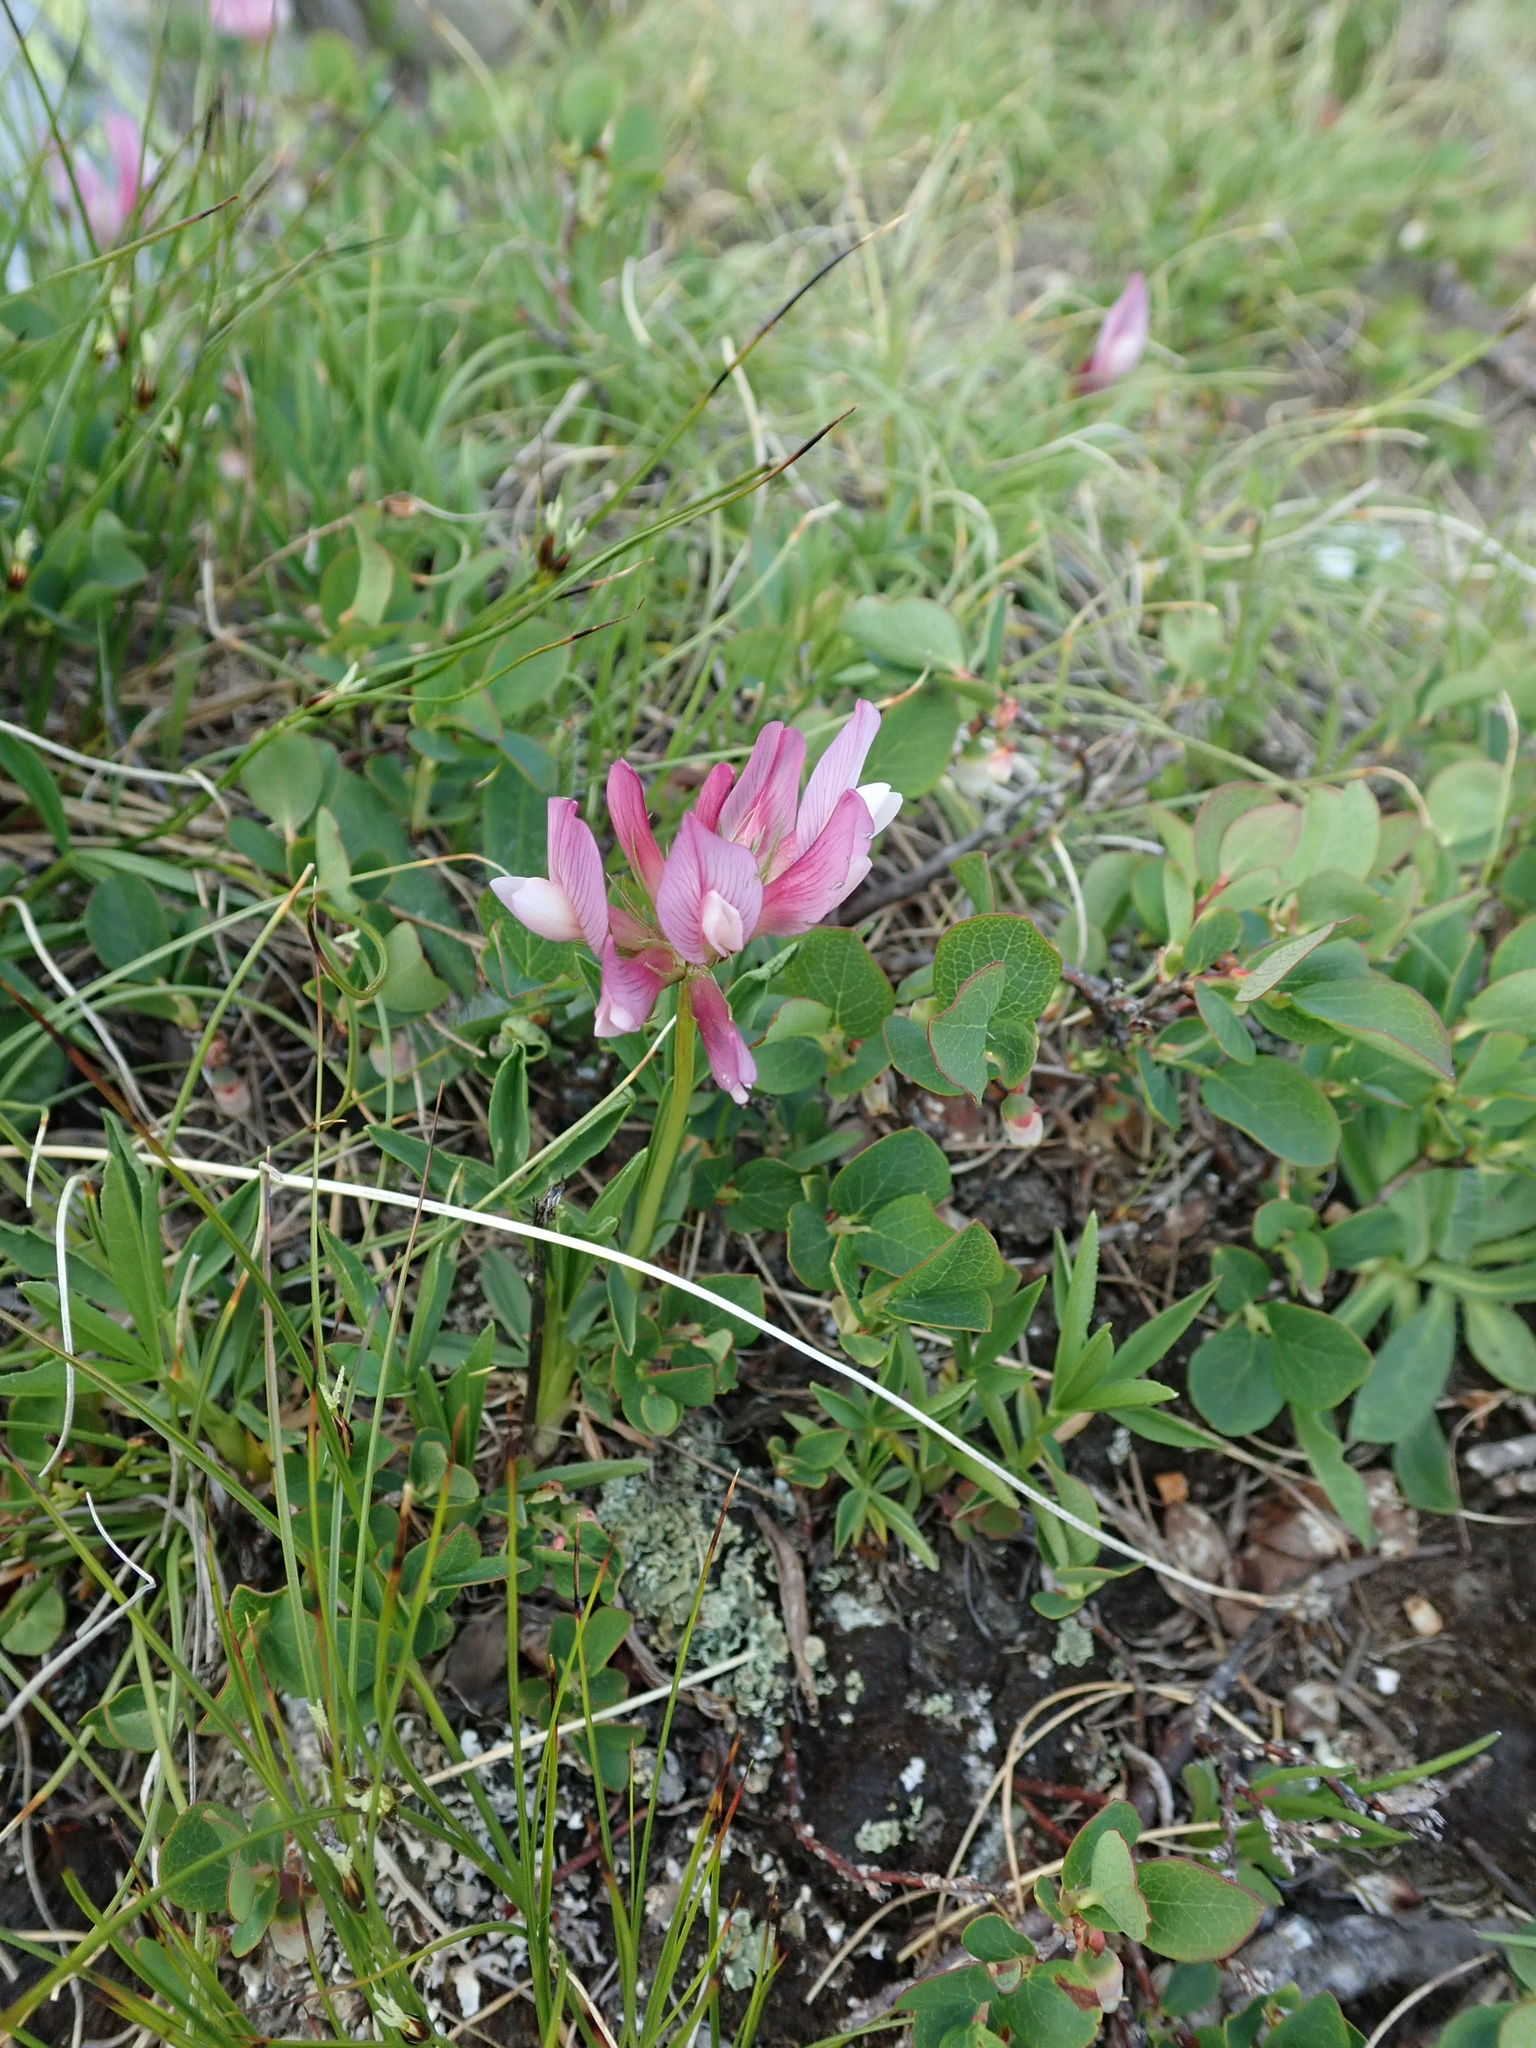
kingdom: Plantae
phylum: Tracheophyta
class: Magnoliopsida
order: Fabales
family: Fabaceae
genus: Trifolium
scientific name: Trifolium alpinum
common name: Alpine clover
